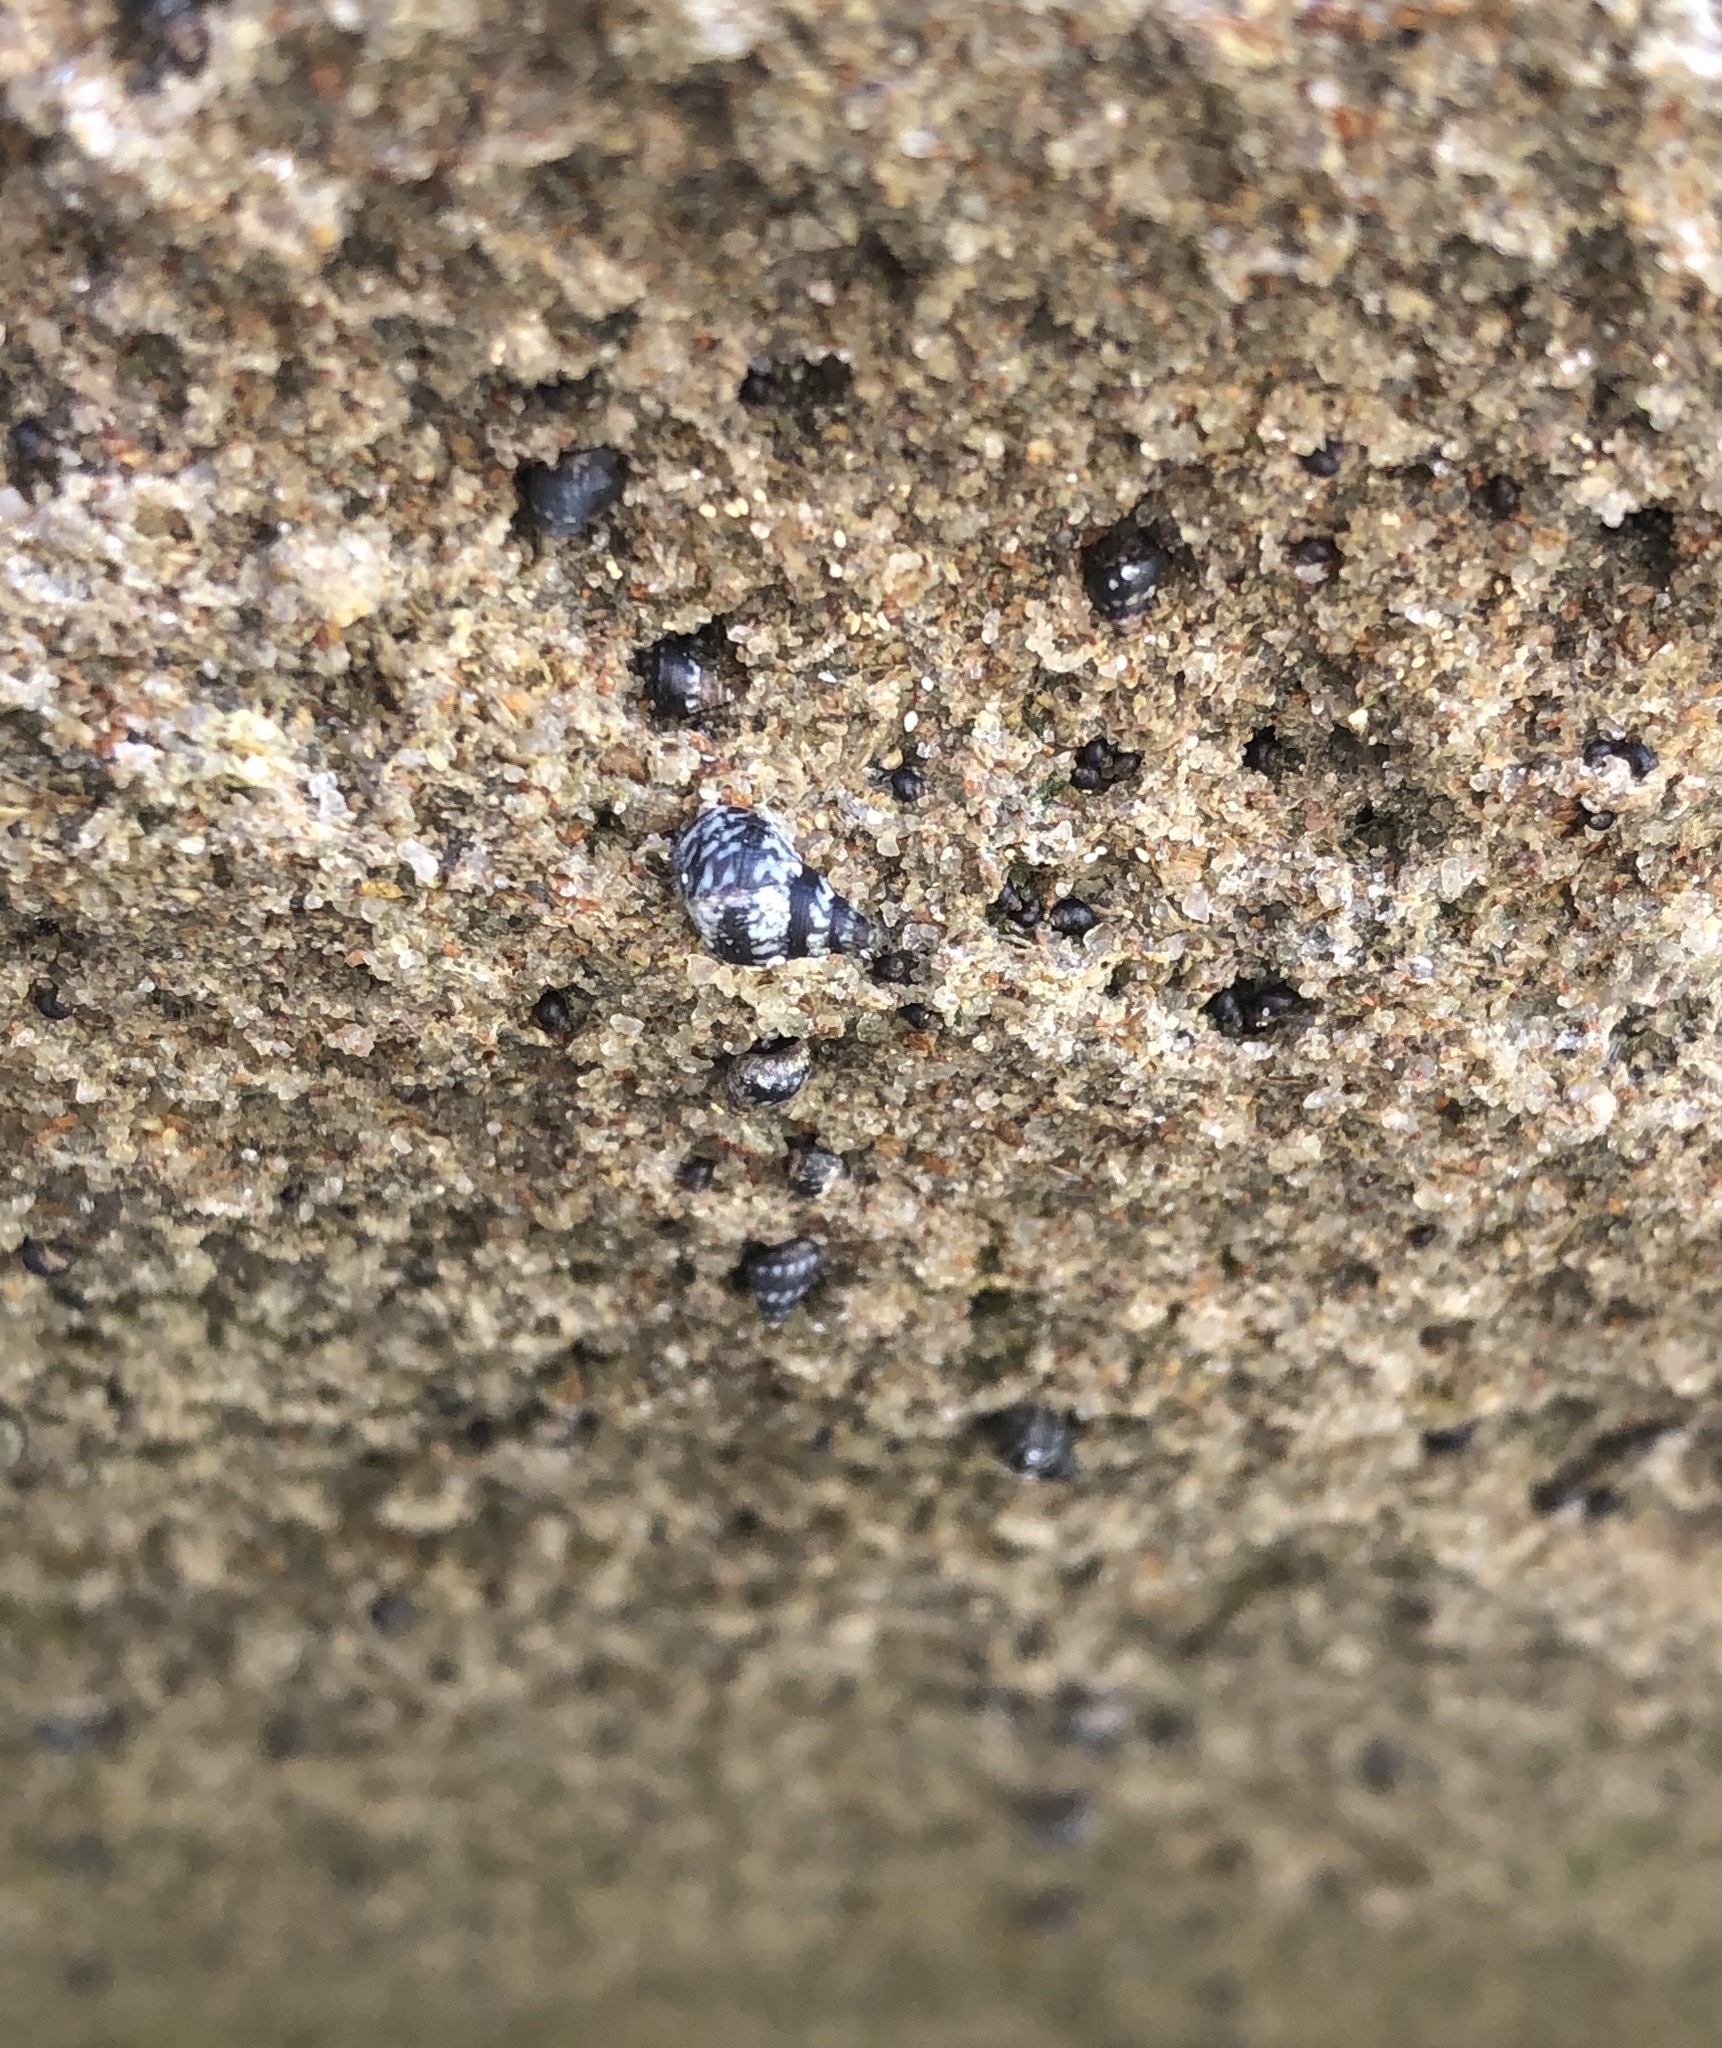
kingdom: Animalia
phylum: Mollusca
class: Gastropoda
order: Littorinimorpha
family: Littorinidae
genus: Echinolittorina
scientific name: Echinolittorina placida
